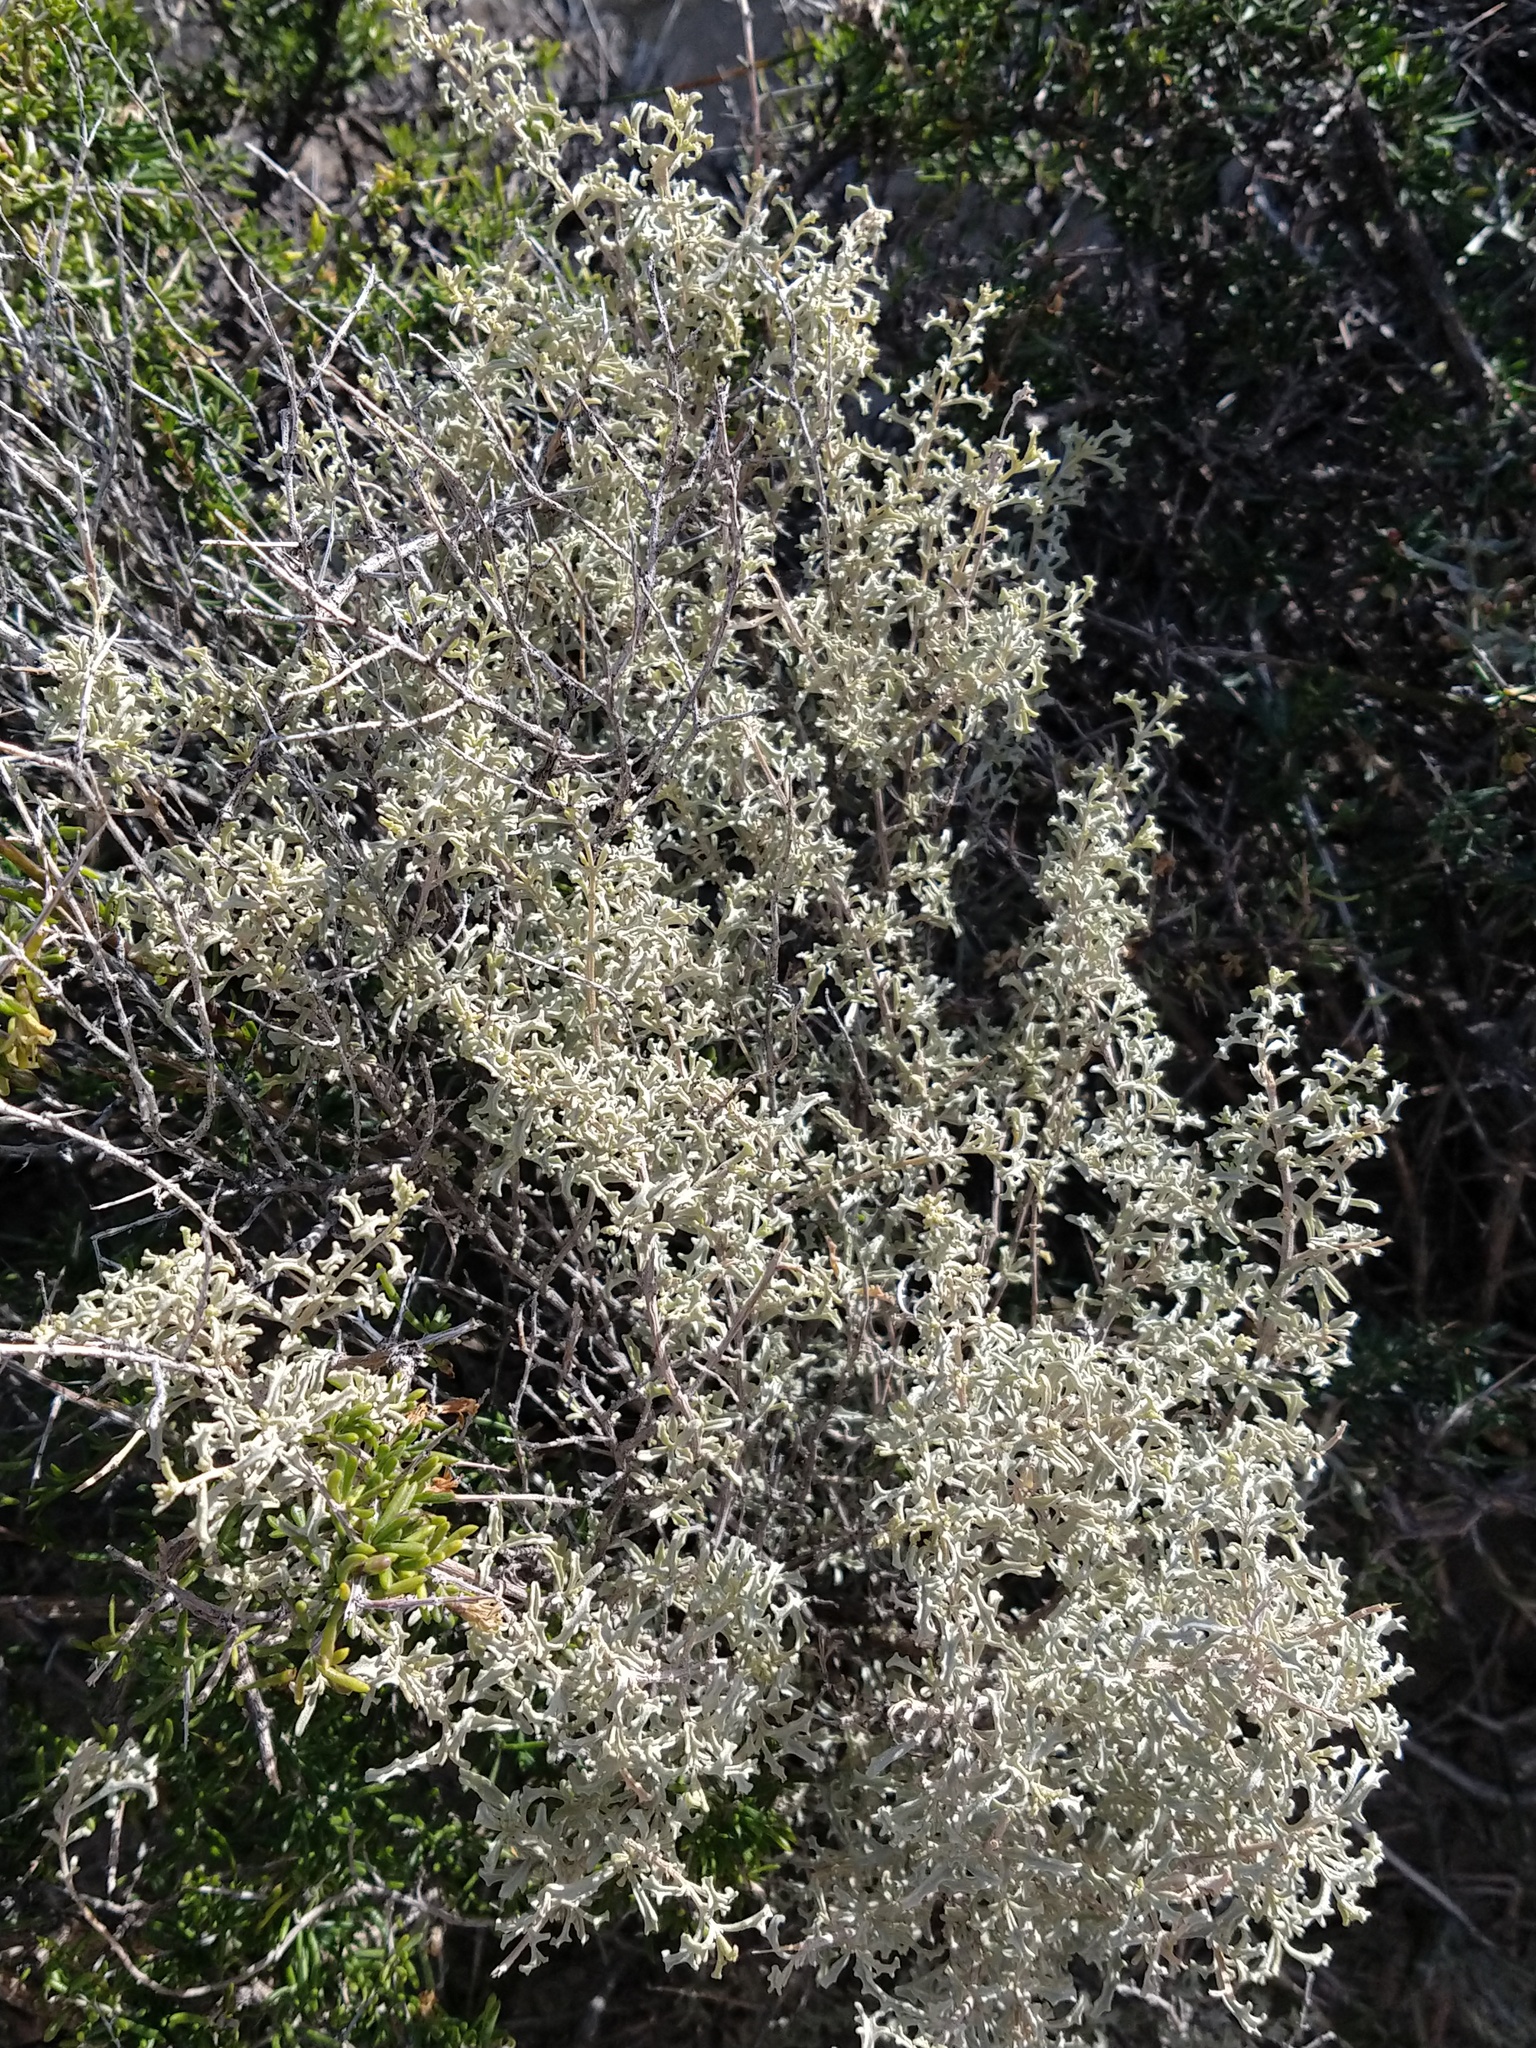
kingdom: Plantae
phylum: Tracheophyta
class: Magnoliopsida
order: Caryophyllales
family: Amaranthaceae
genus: Atriplex
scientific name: Atriplex lampa
